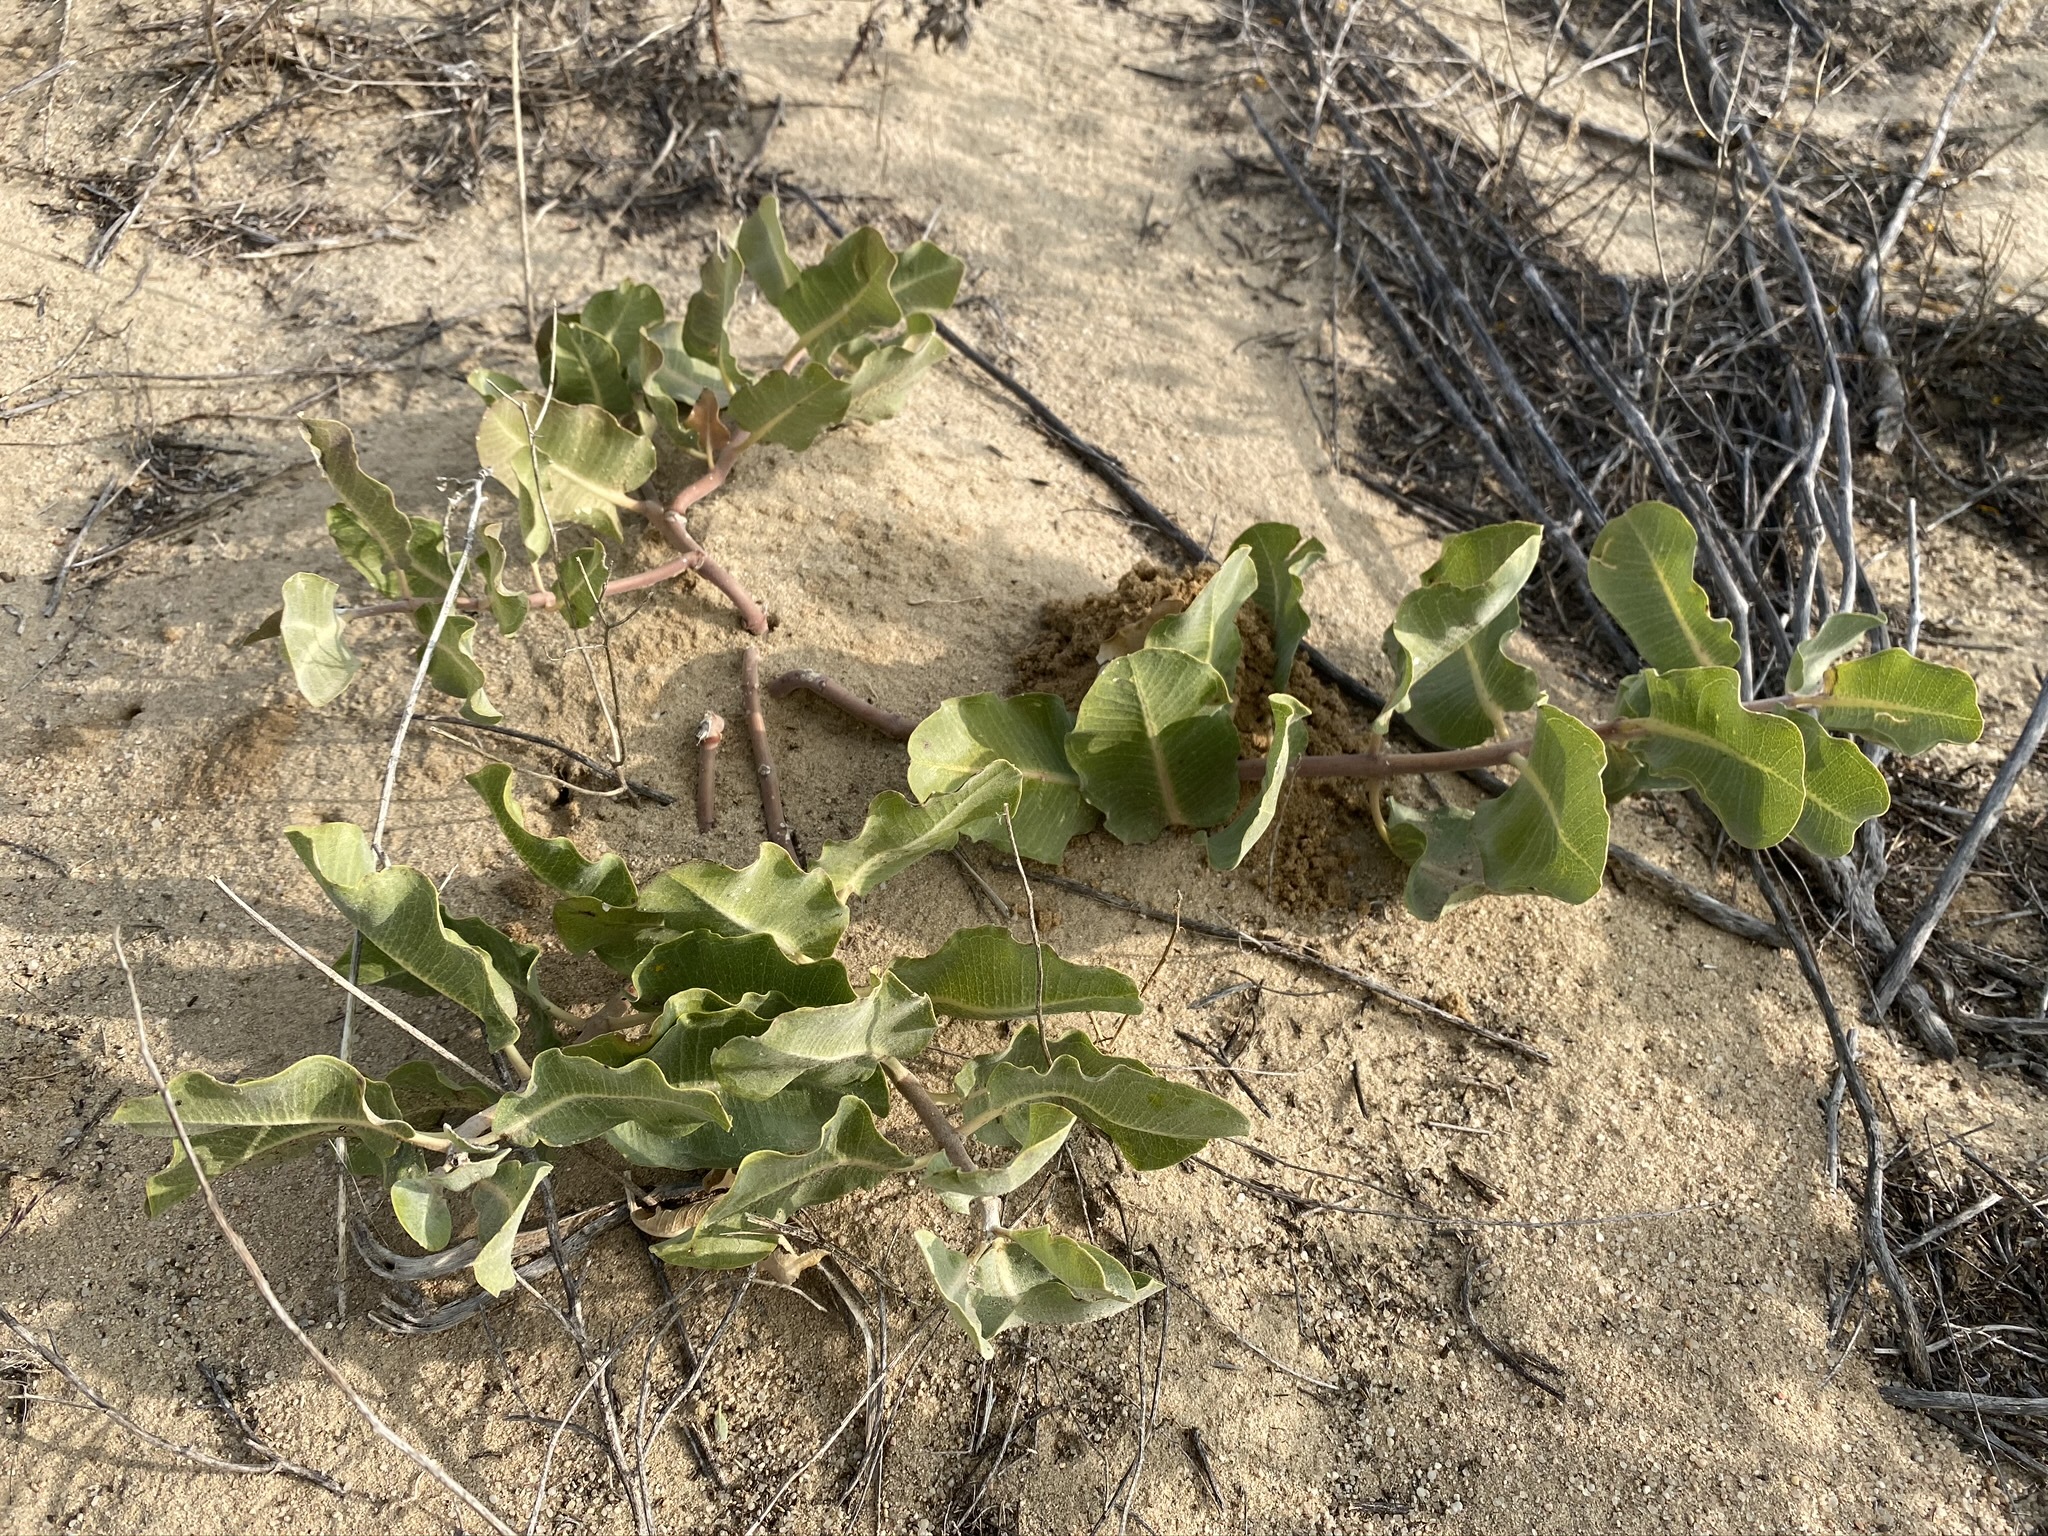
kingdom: Plantae
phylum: Tracheophyta
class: Magnoliopsida
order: Gentianales
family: Apocynaceae
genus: Asclepias
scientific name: Asclepias arenaria
